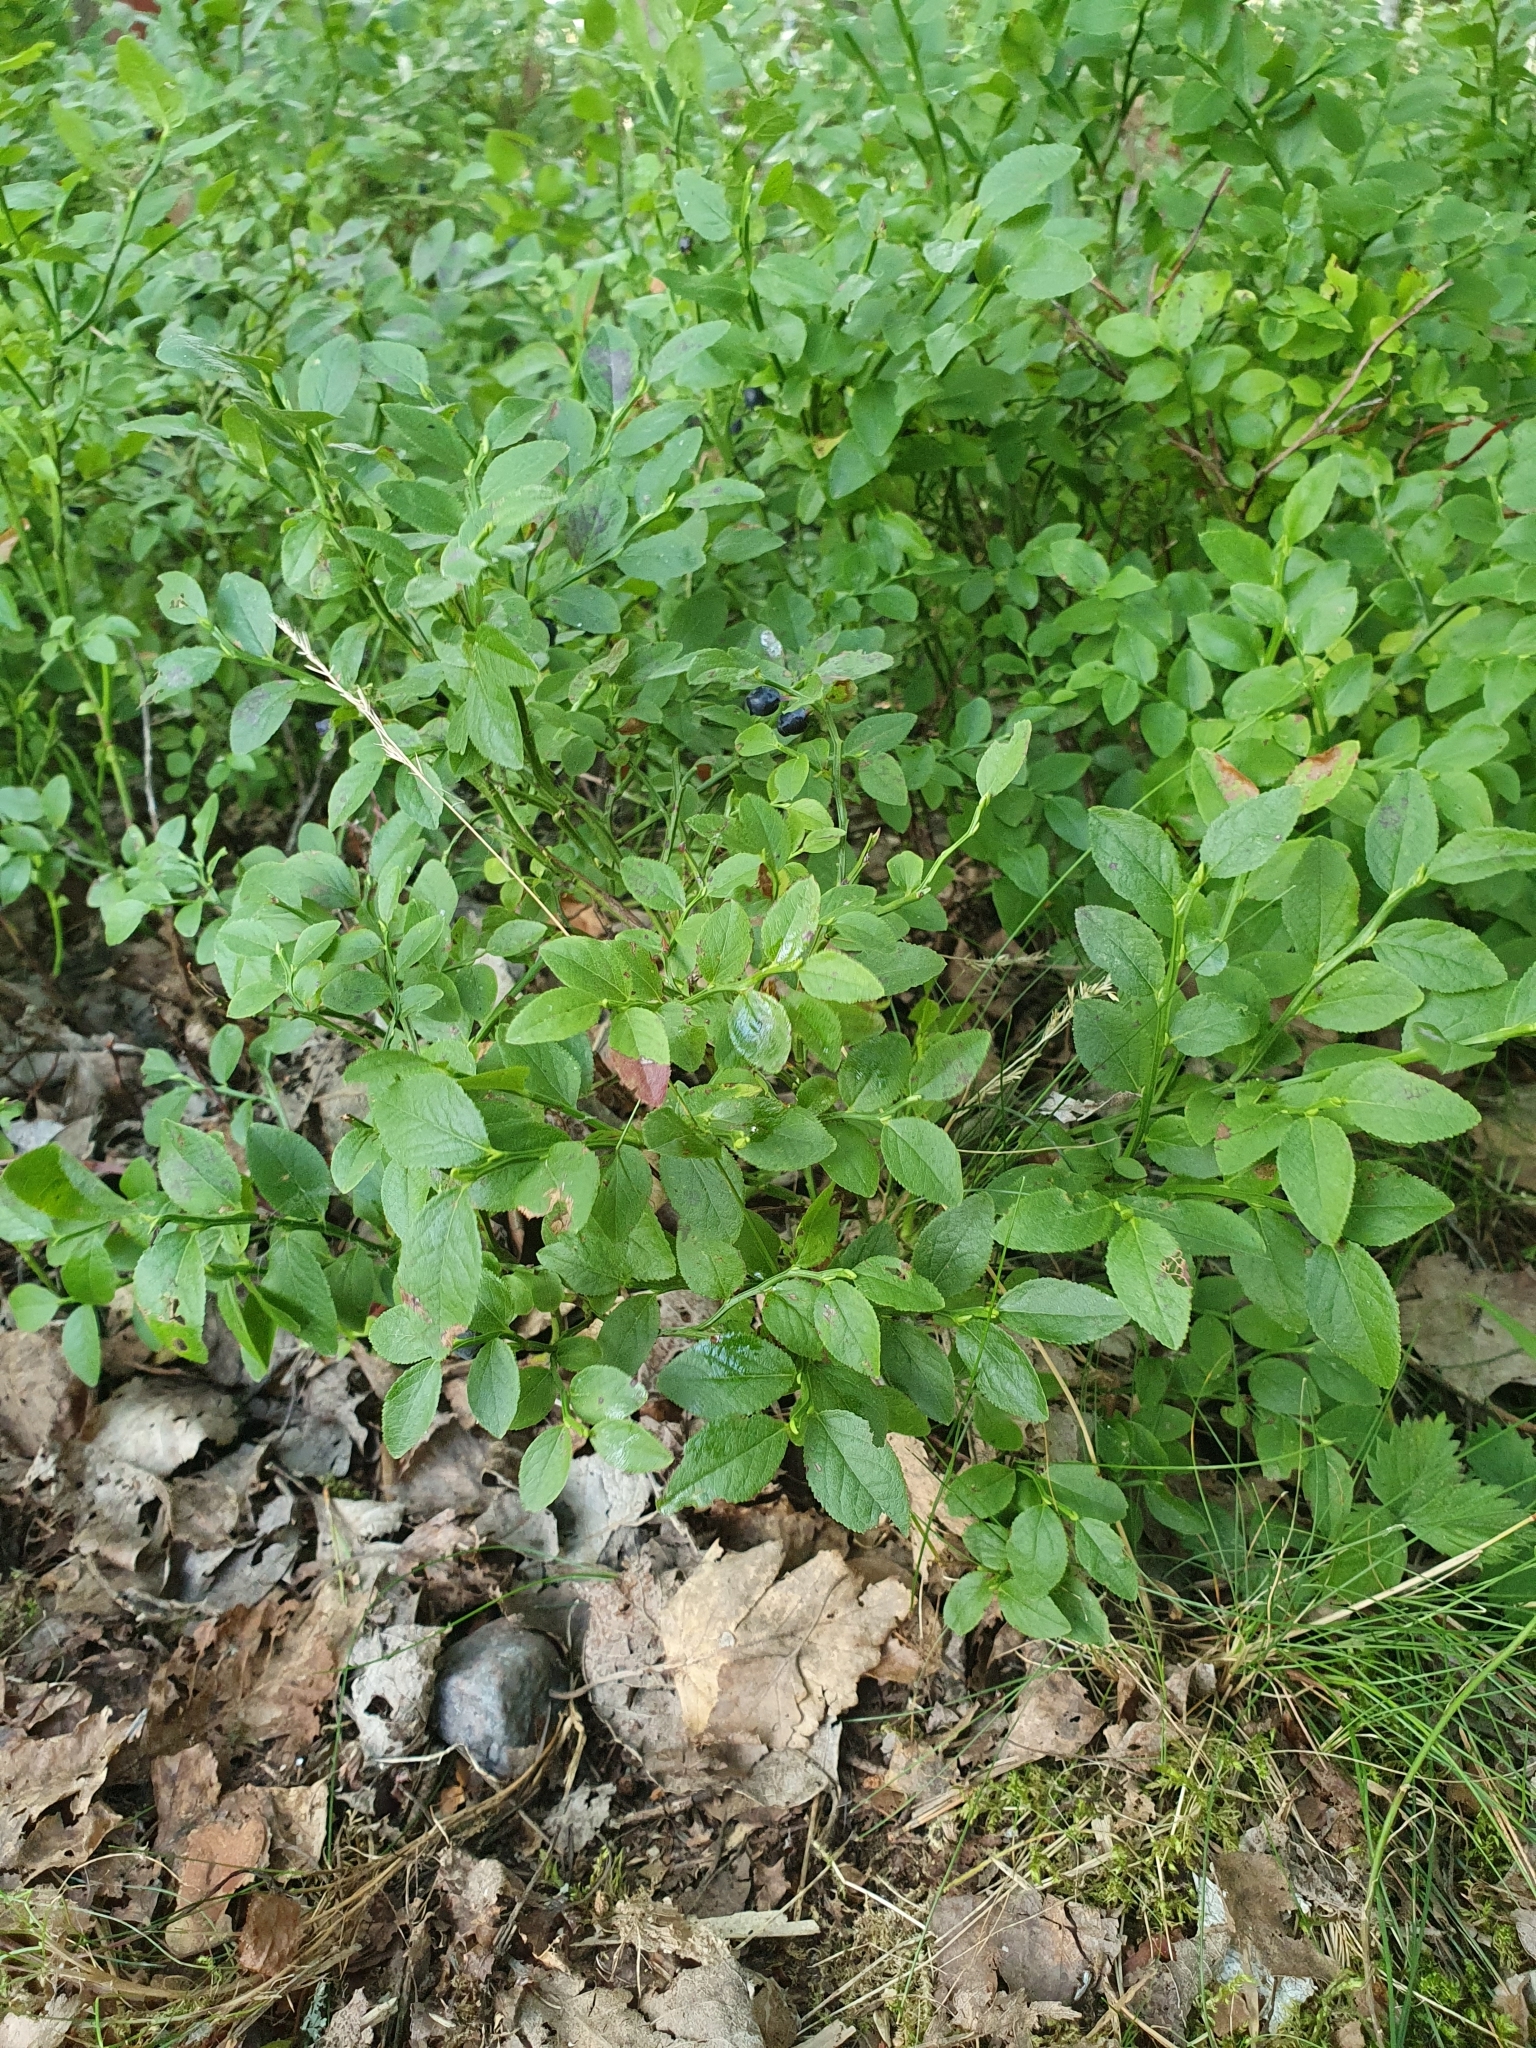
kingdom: Plantae
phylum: Tracheophyta
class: Magnoliopsida
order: Ericales
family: Ericaceae
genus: Vaccinium
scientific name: Vaccinium myrtillus
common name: Bilberry
